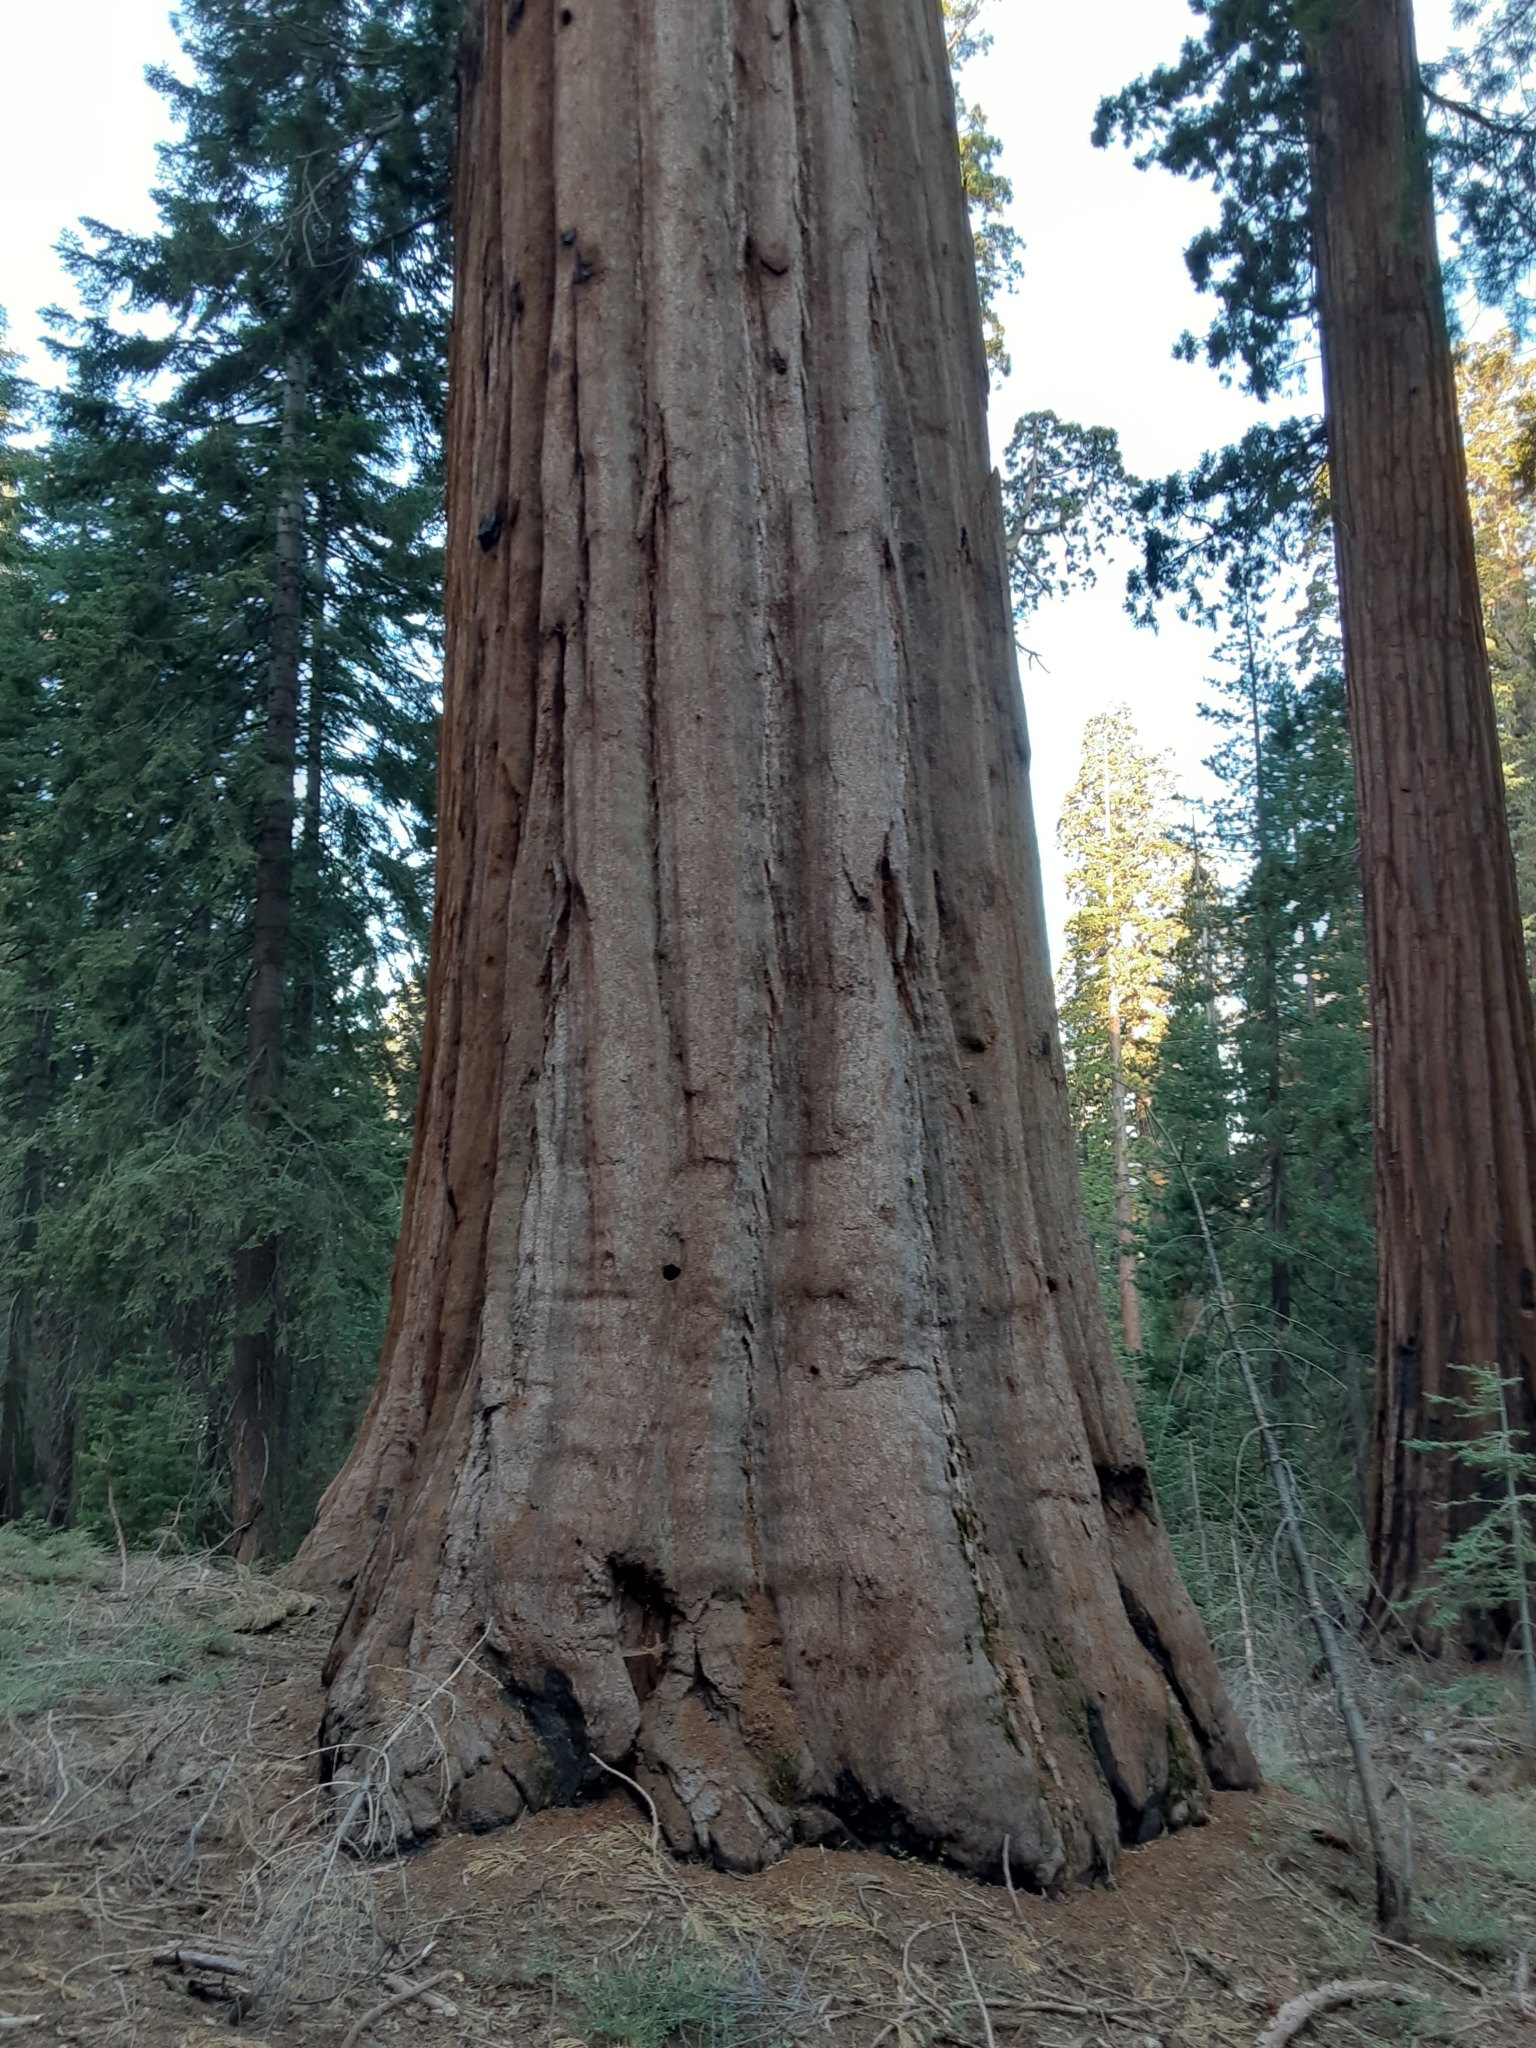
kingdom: Plantae
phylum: Tracheophyta
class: Pinopsida
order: Pinales
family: Cupressaceae
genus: Sequoiadendron
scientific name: Sequoiadendron giganteum
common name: Wellingtonia
